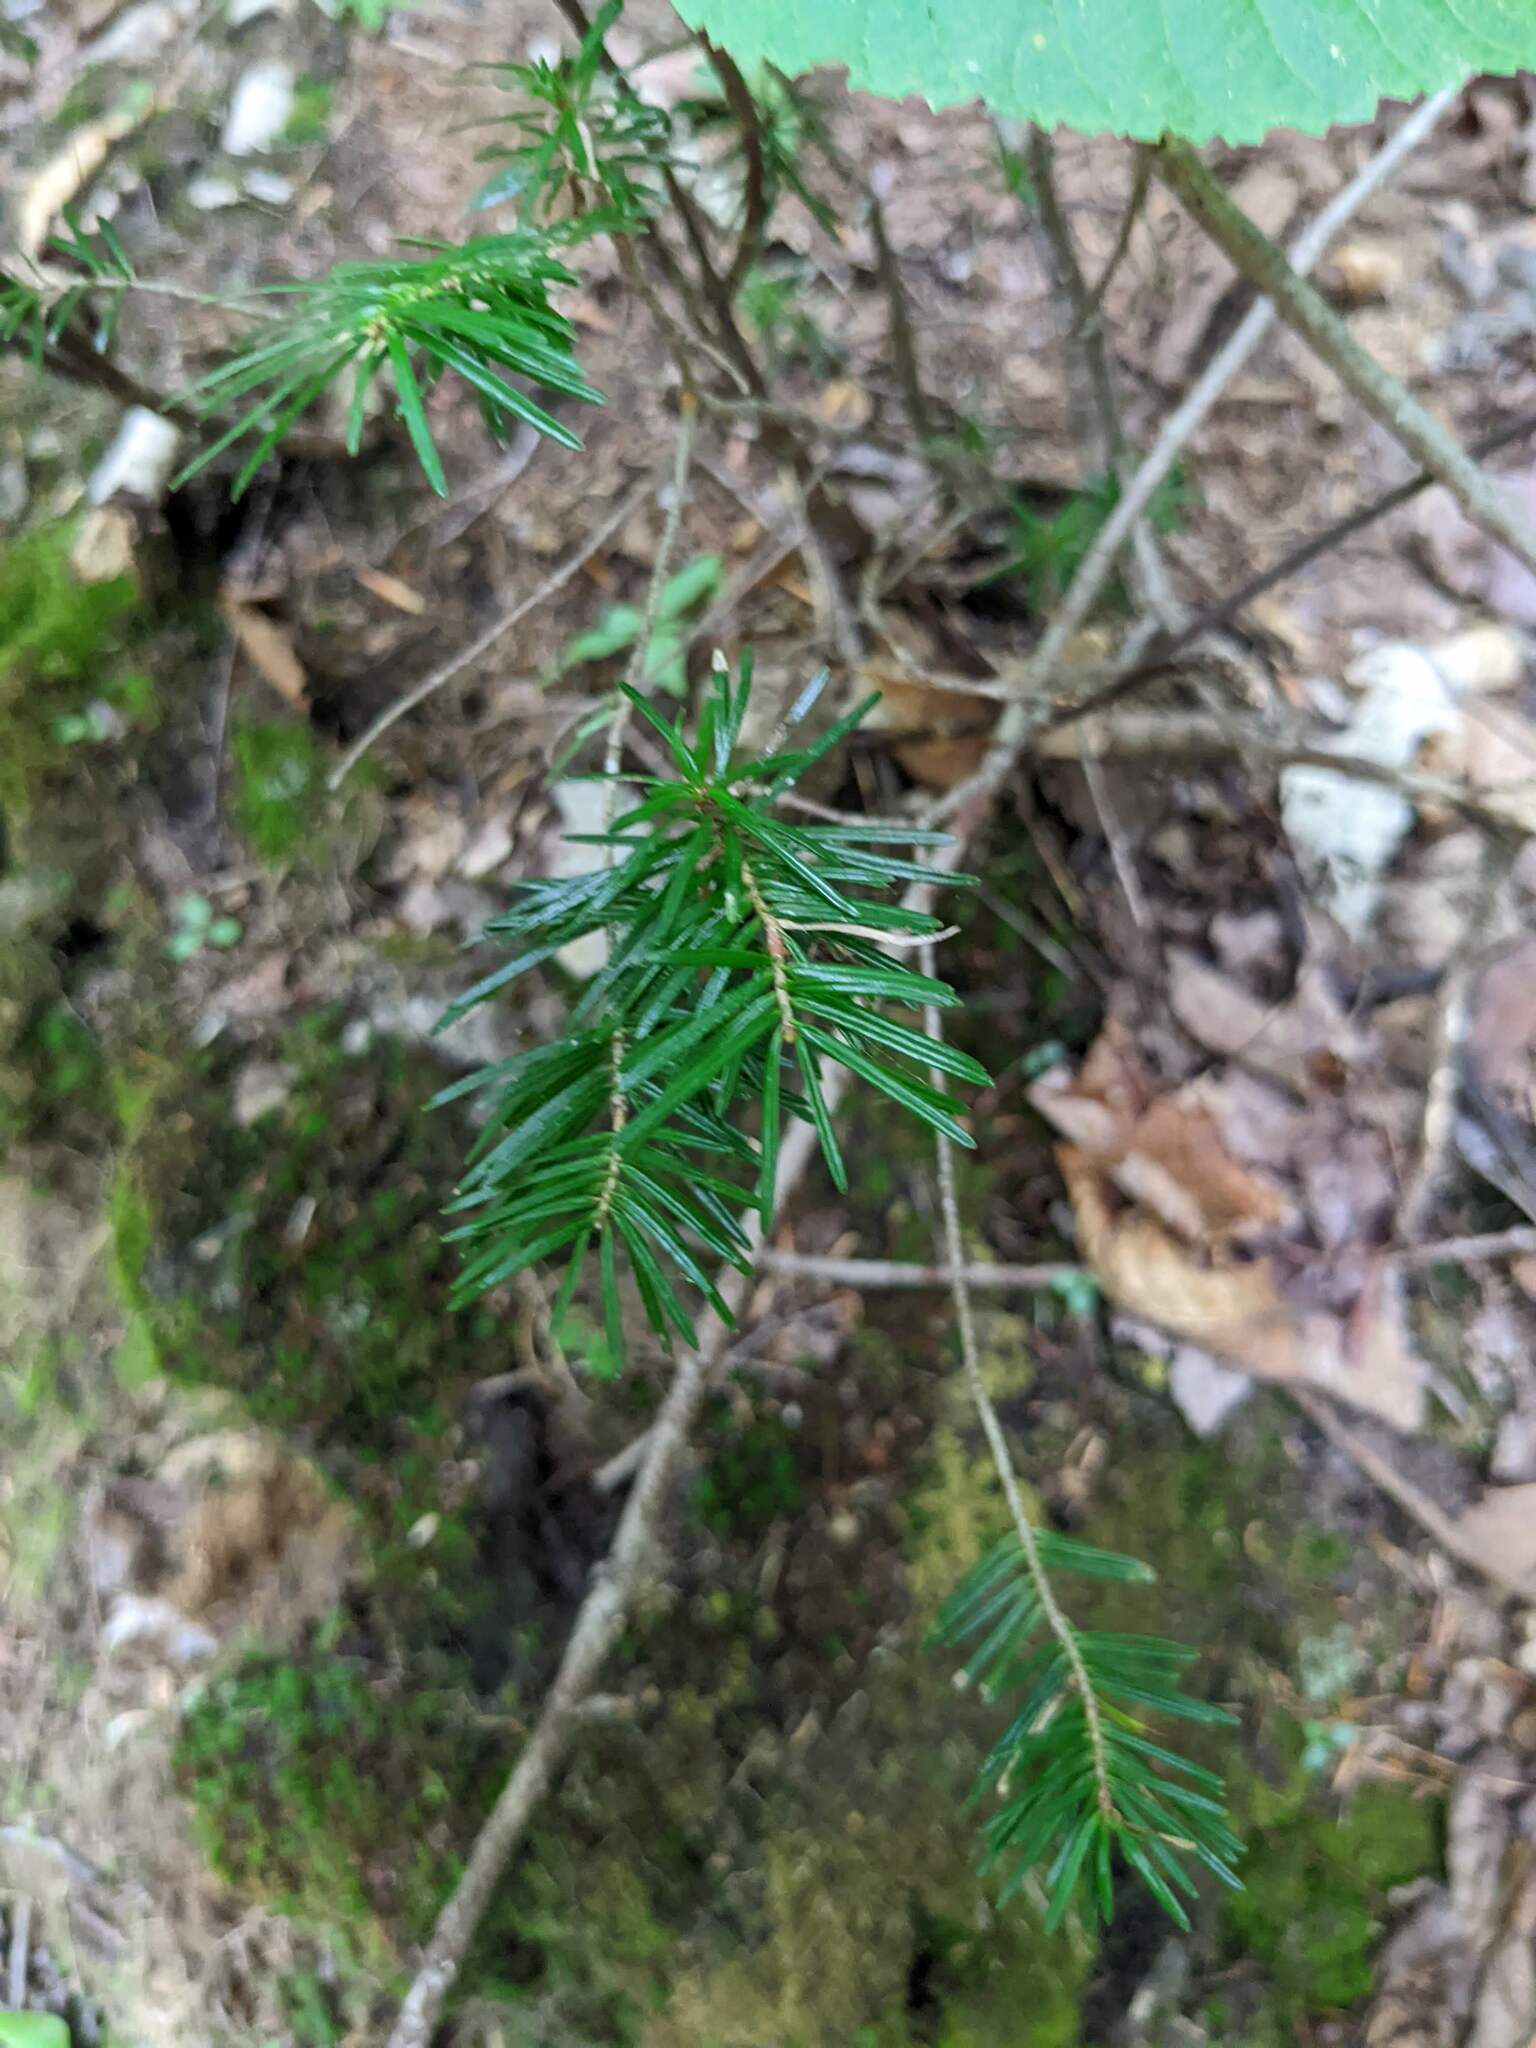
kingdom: Plantae
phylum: Tracheophyta
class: Pinopsida
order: Pinales
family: Pinaceae
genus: Abies
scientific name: Abies balsamea
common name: Balsam fir
